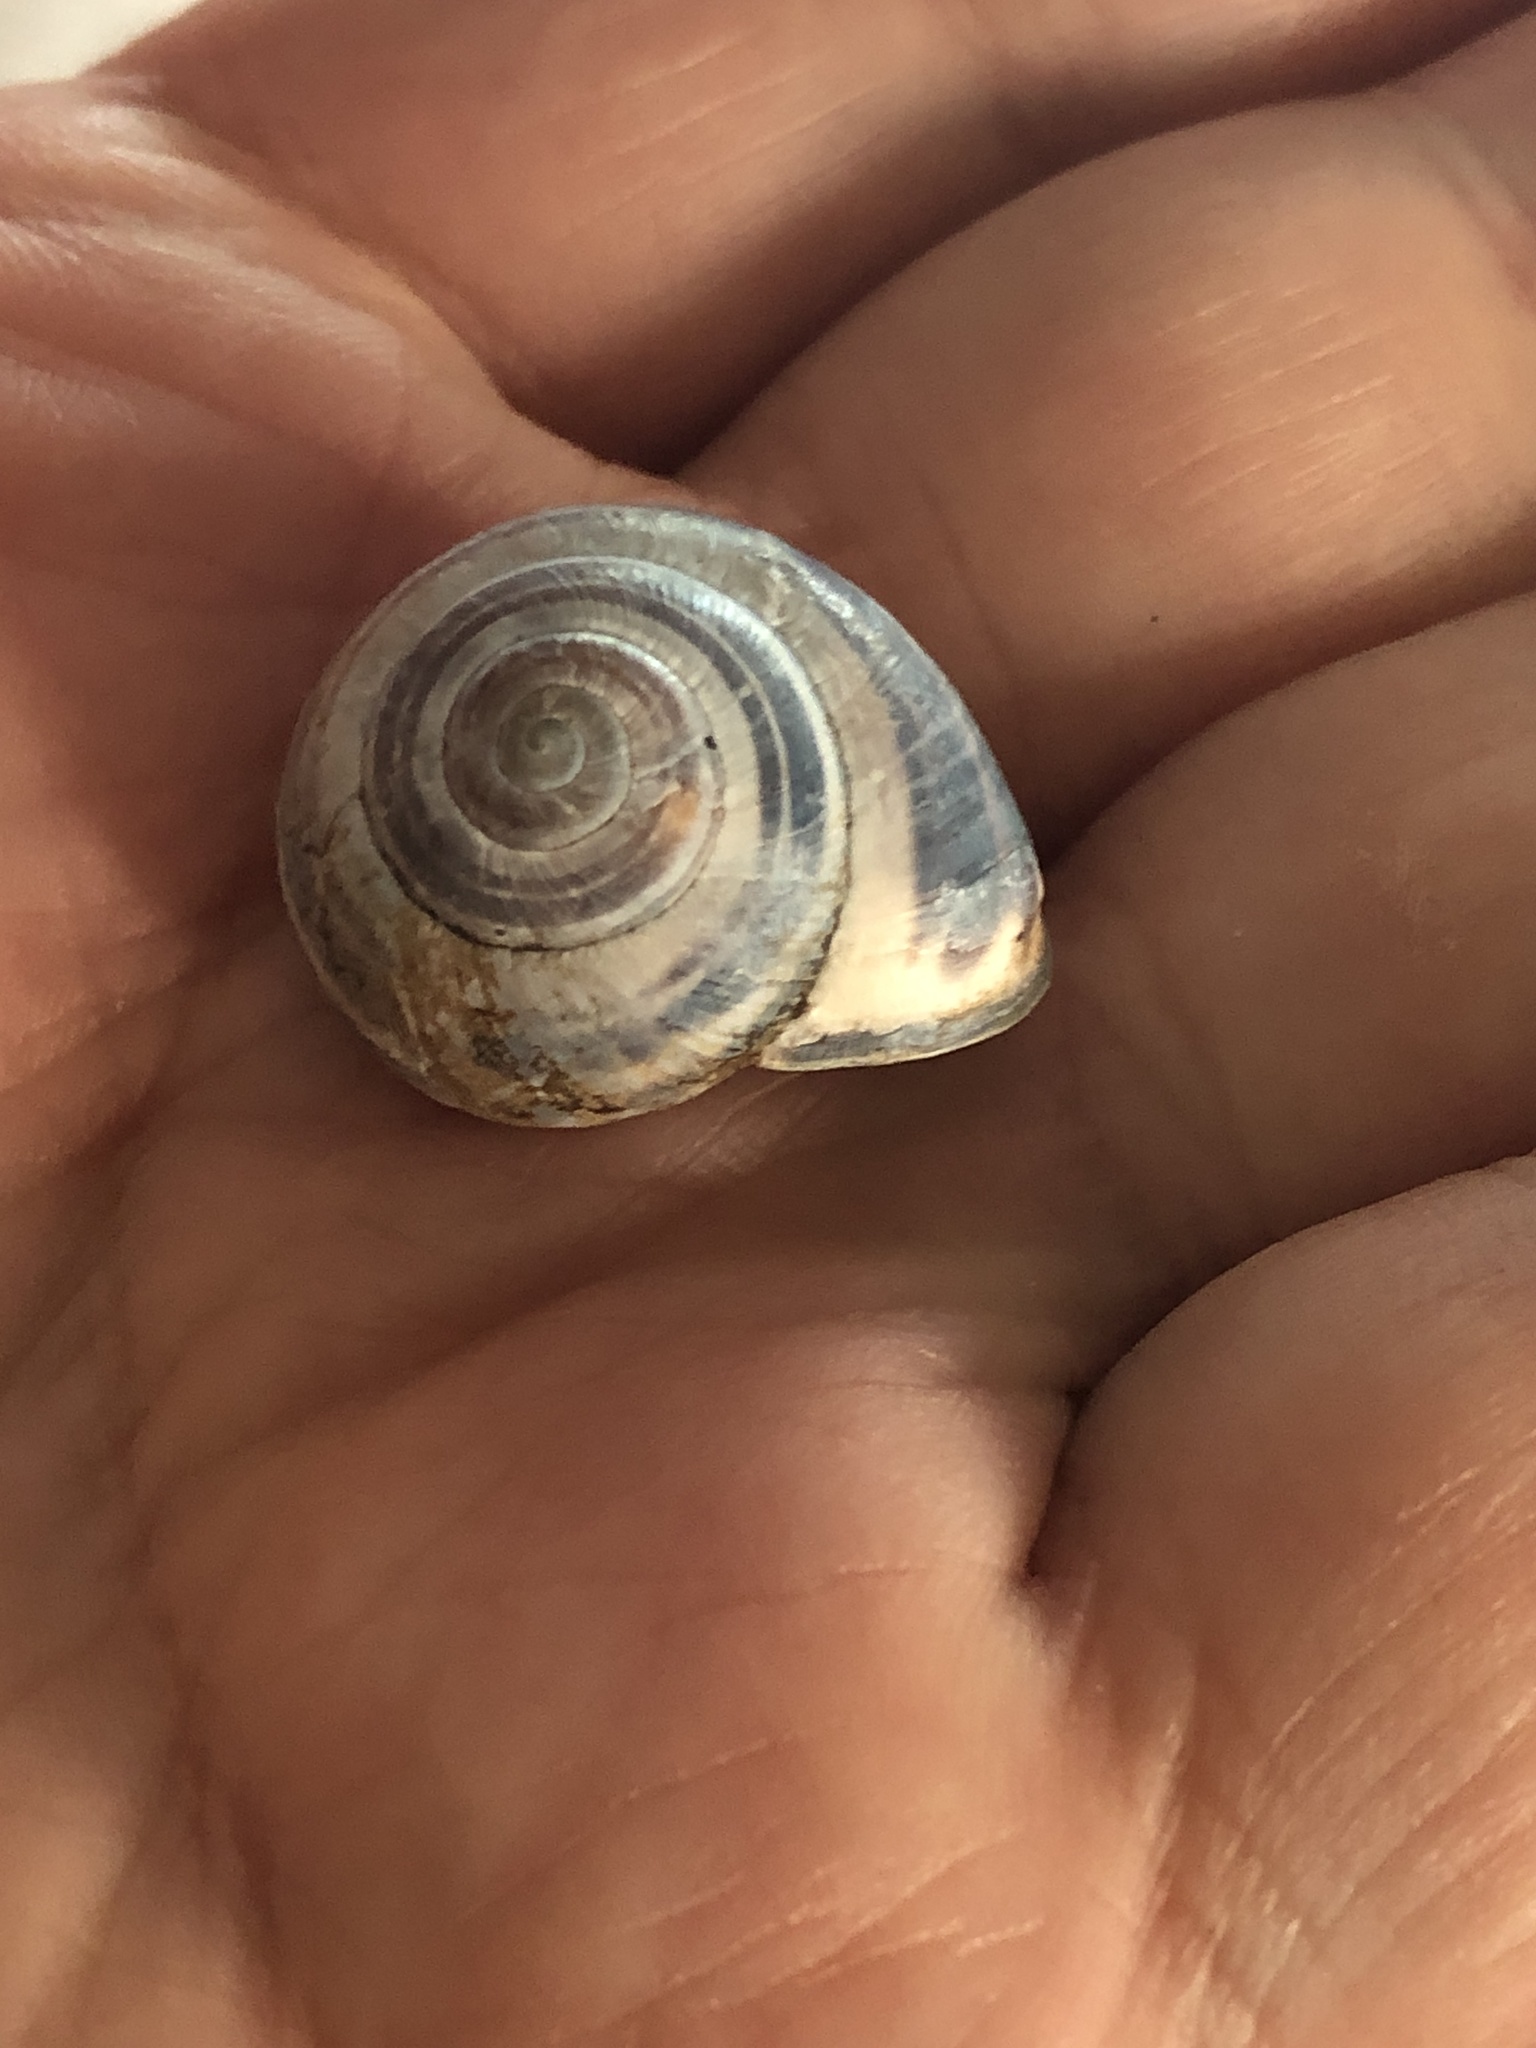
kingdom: Animalia
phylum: Mollusca
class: Gastropoda
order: Stylommatophora
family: Helicidae
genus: Cepaea
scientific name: Cepaea nemoralis
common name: Grovesnail
